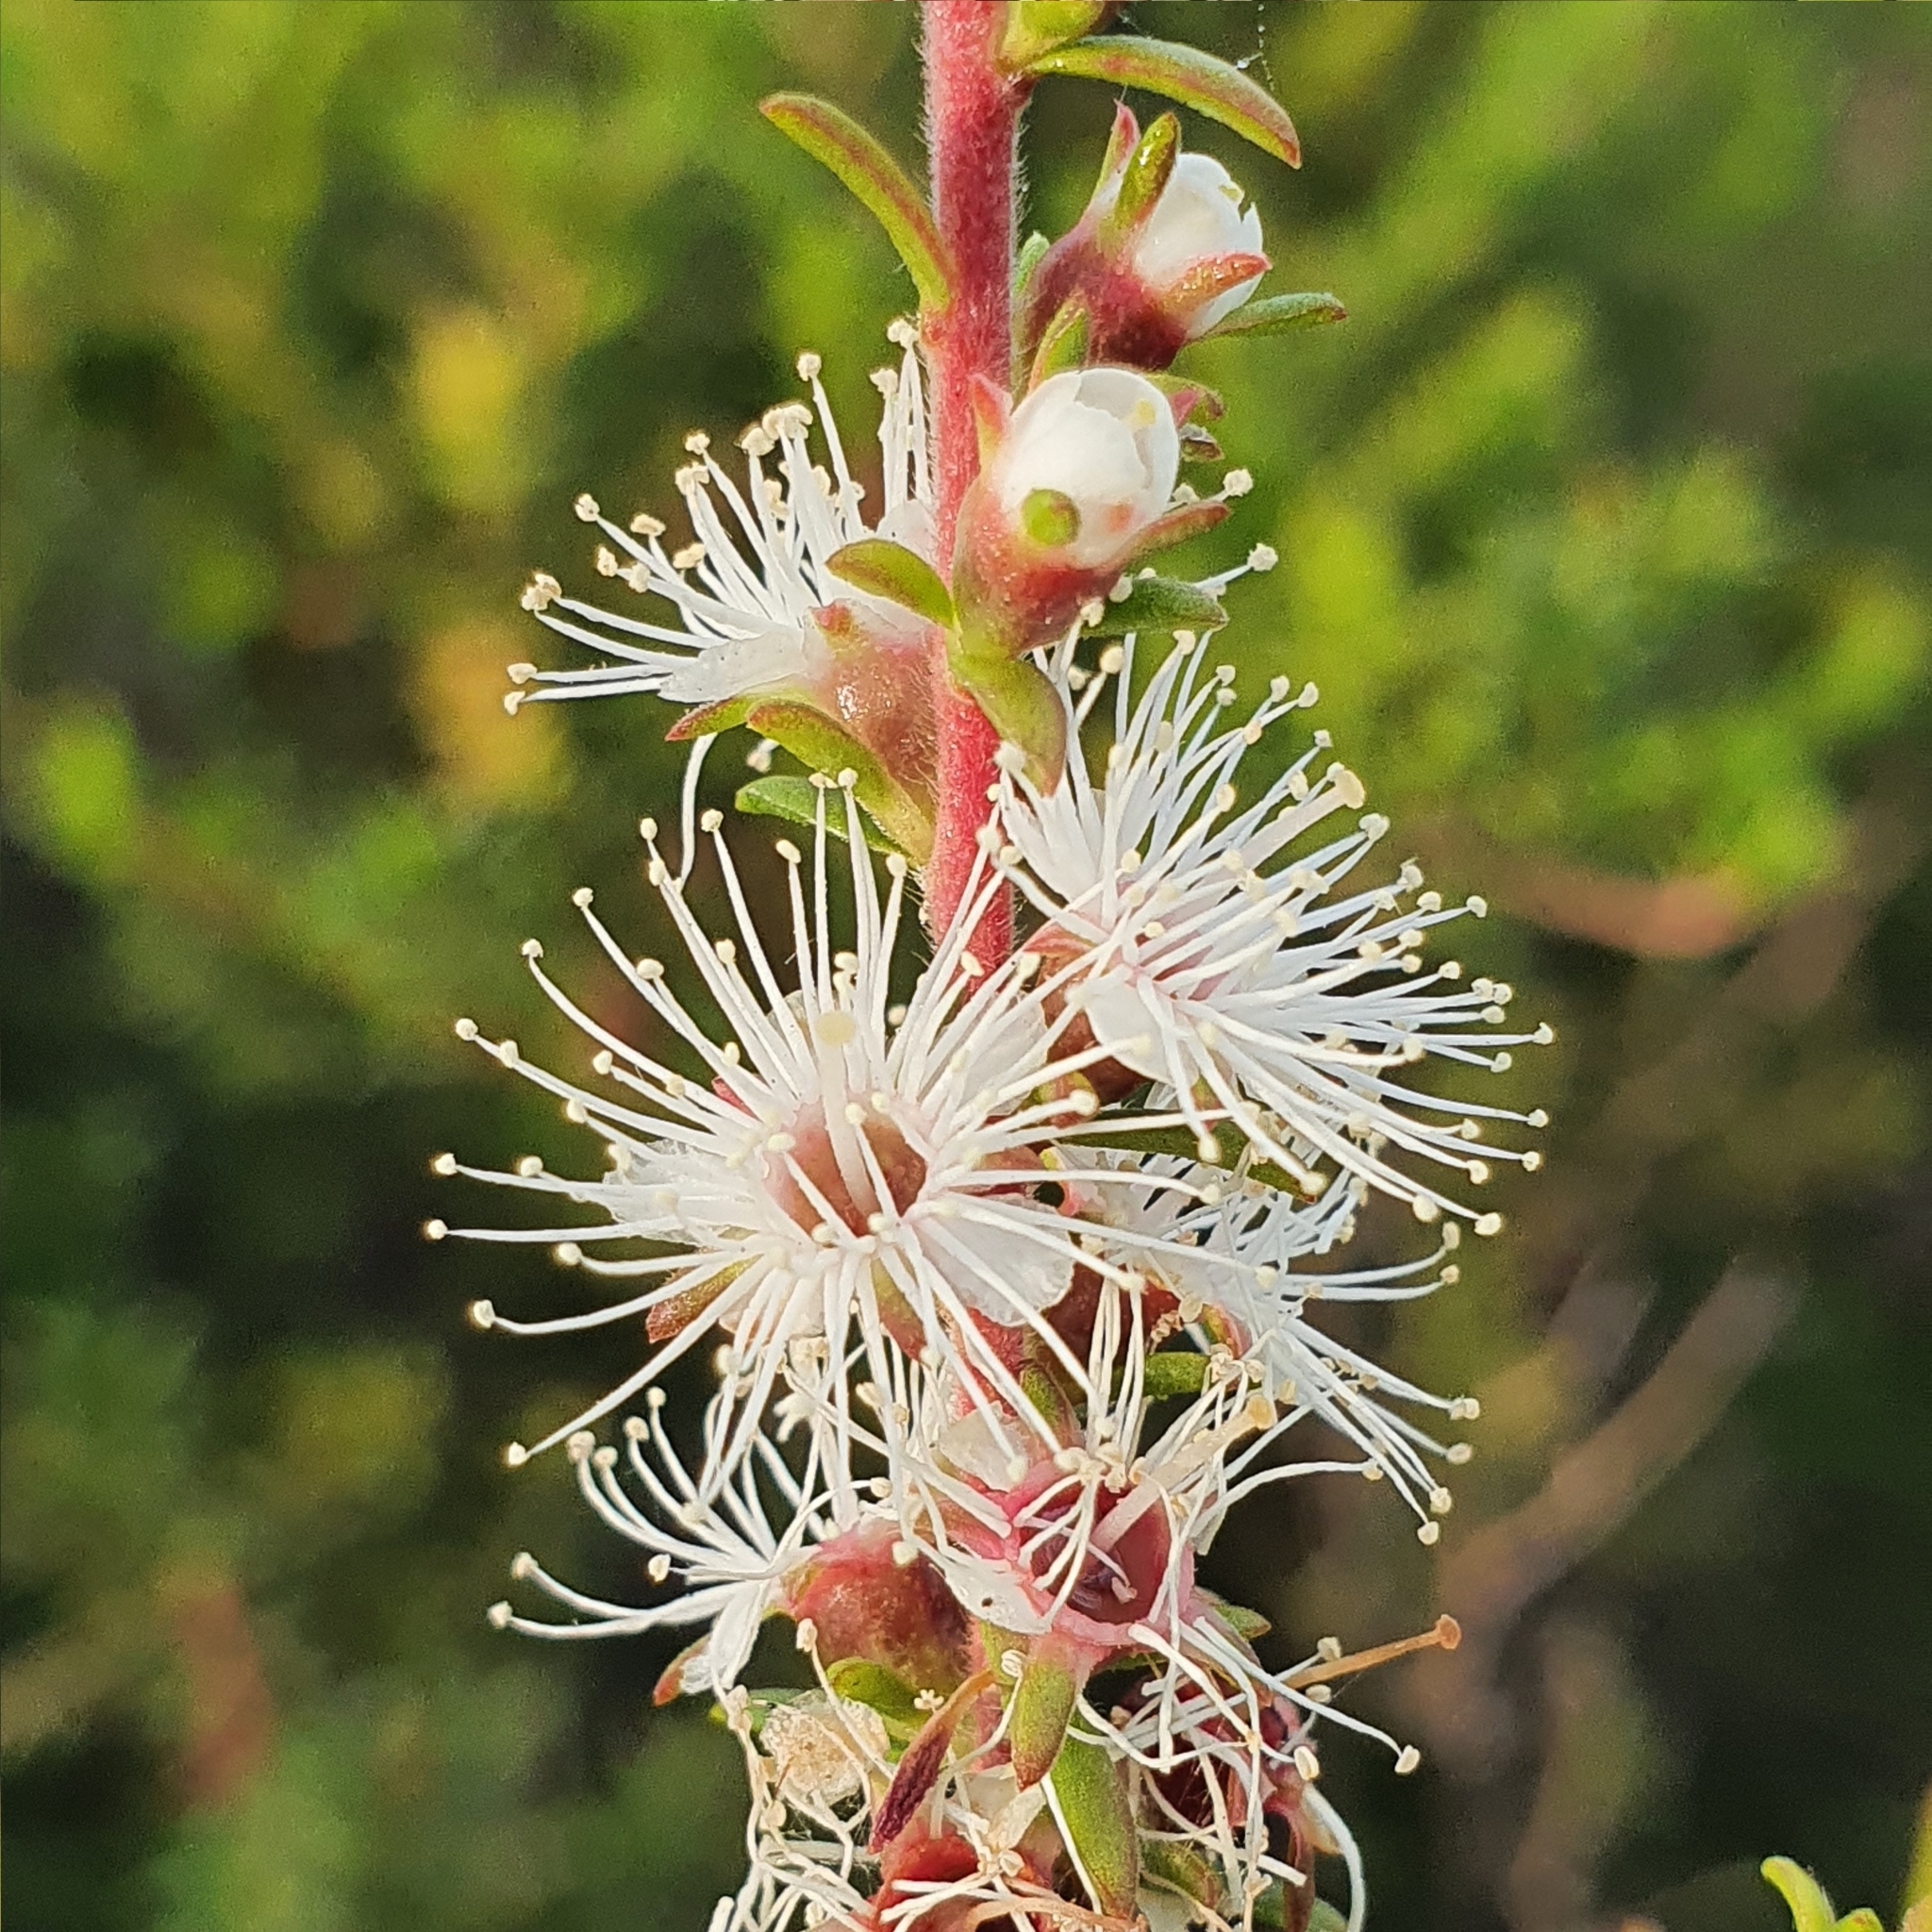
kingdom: Plantae
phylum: Tracheophyta
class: Magnoliopsida
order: Myrtales
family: Myrtaceae
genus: Kunzea
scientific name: Kunzea ambigua
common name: Tickbush
